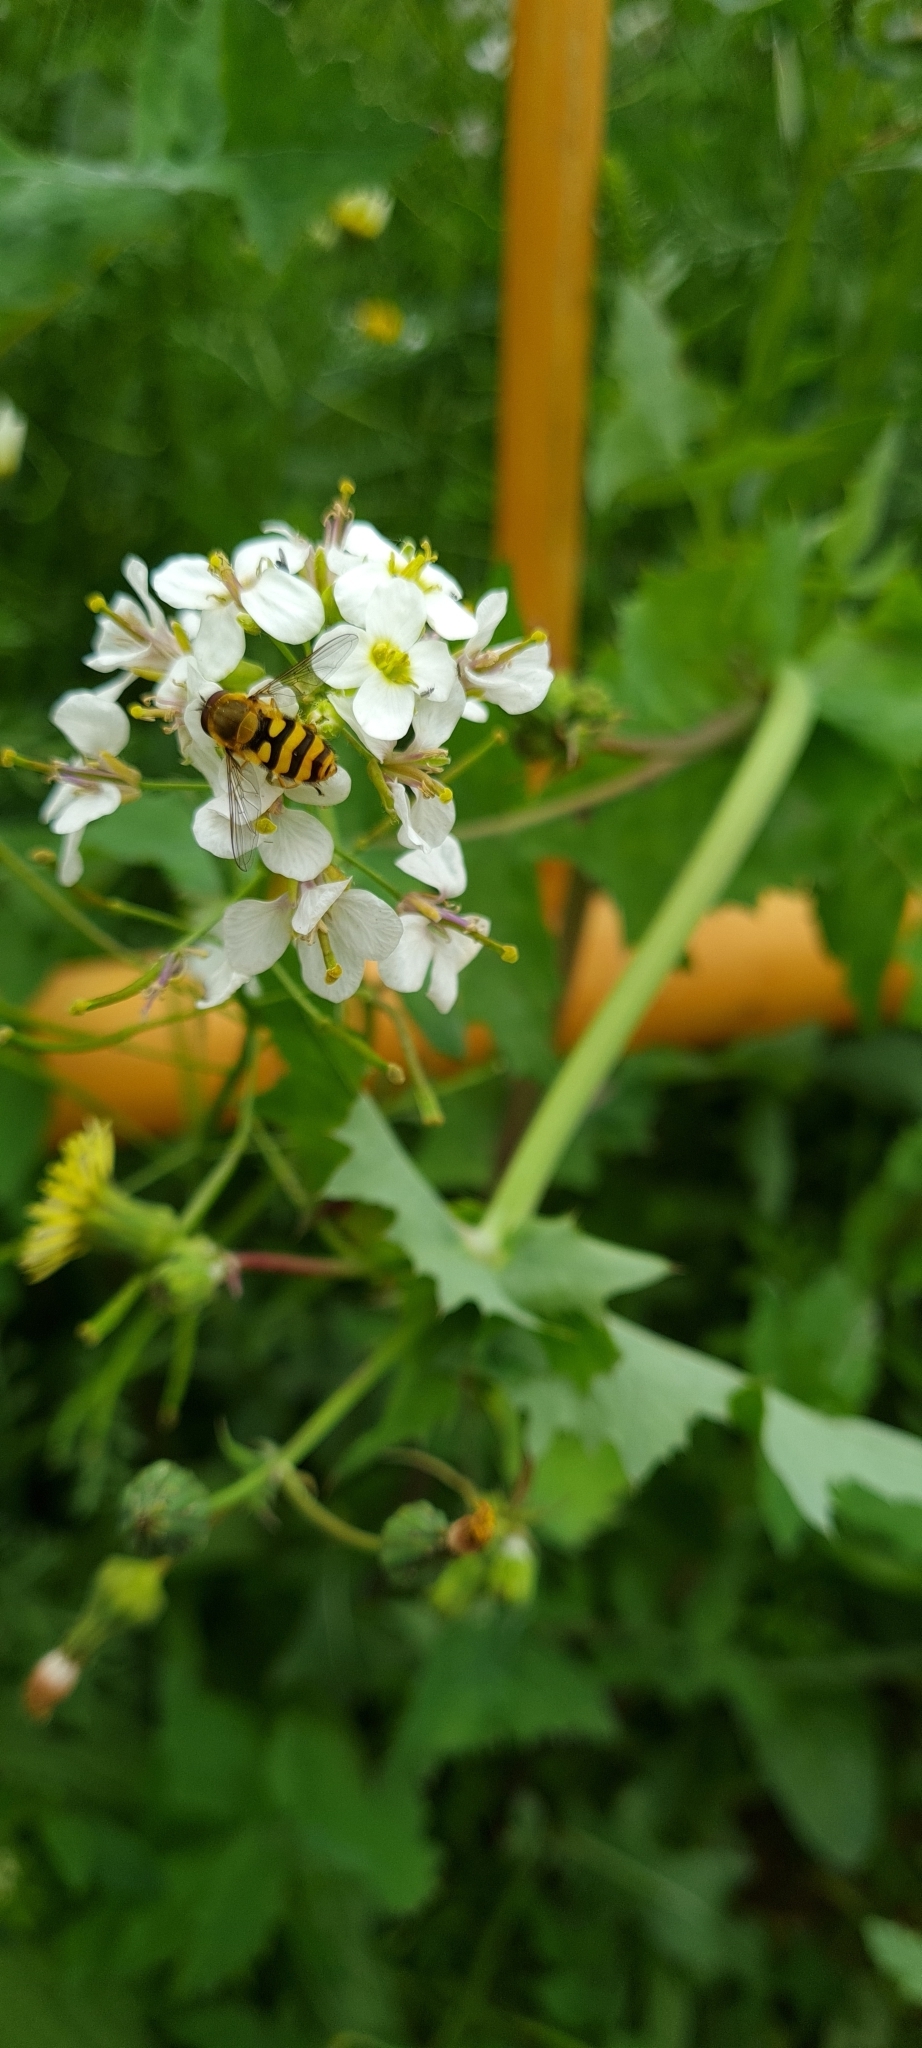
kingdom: Animalia
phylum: Arthropoda
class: Insecta
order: Diptera
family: Syrphidae
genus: Syrphus
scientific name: Syrphus
